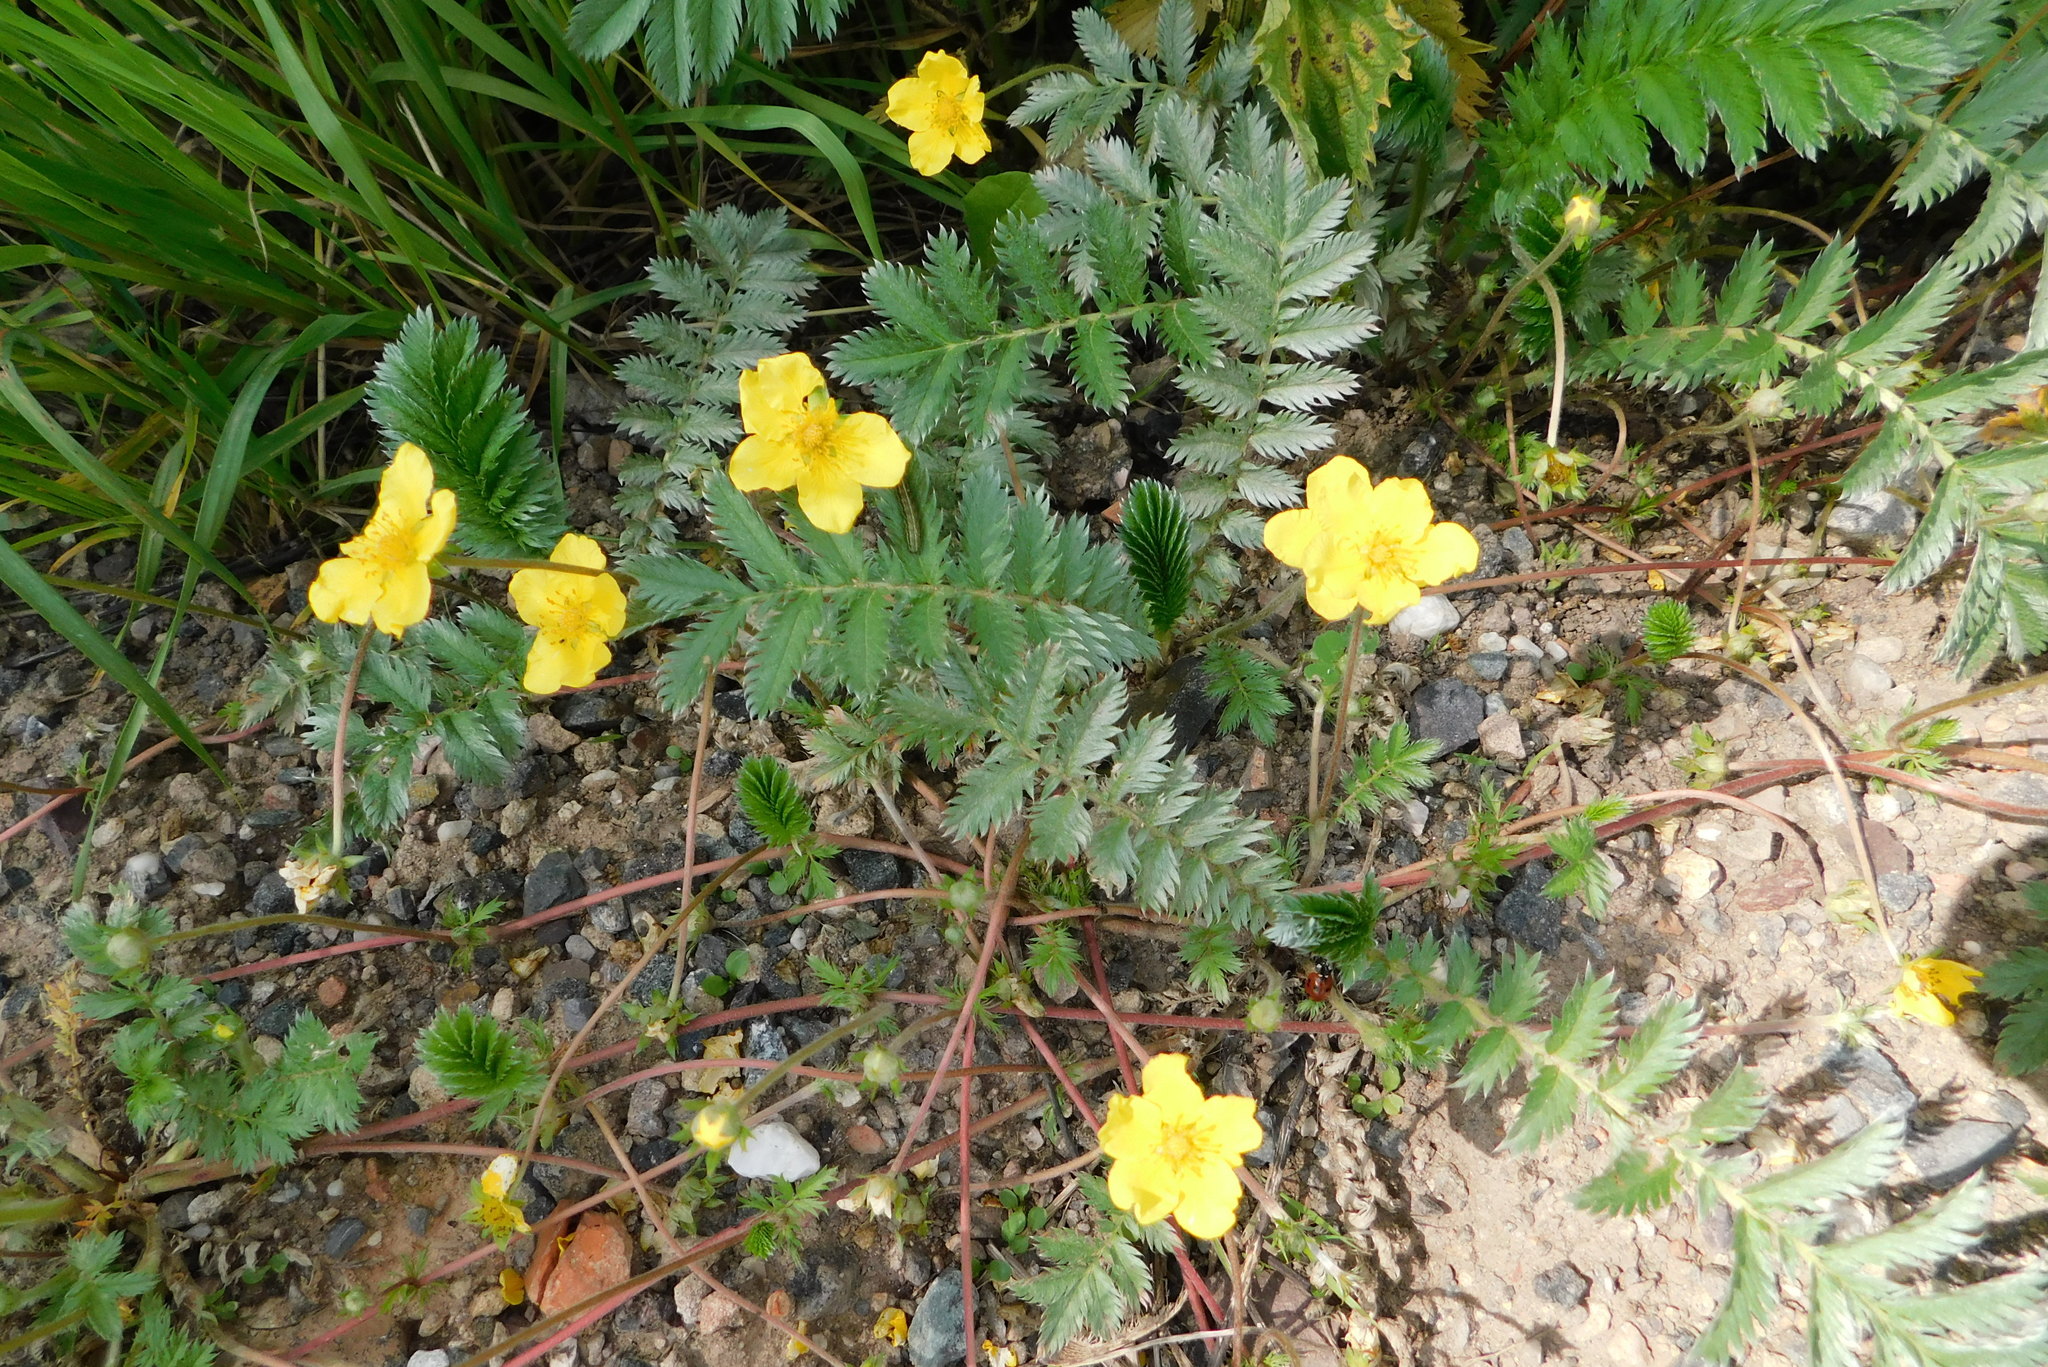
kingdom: Plantae
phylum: Tracheophyta
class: Magnoliopsida
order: Rosales
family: Rosaceae
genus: Argentina
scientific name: Argentina anserina
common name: Common silverweed
